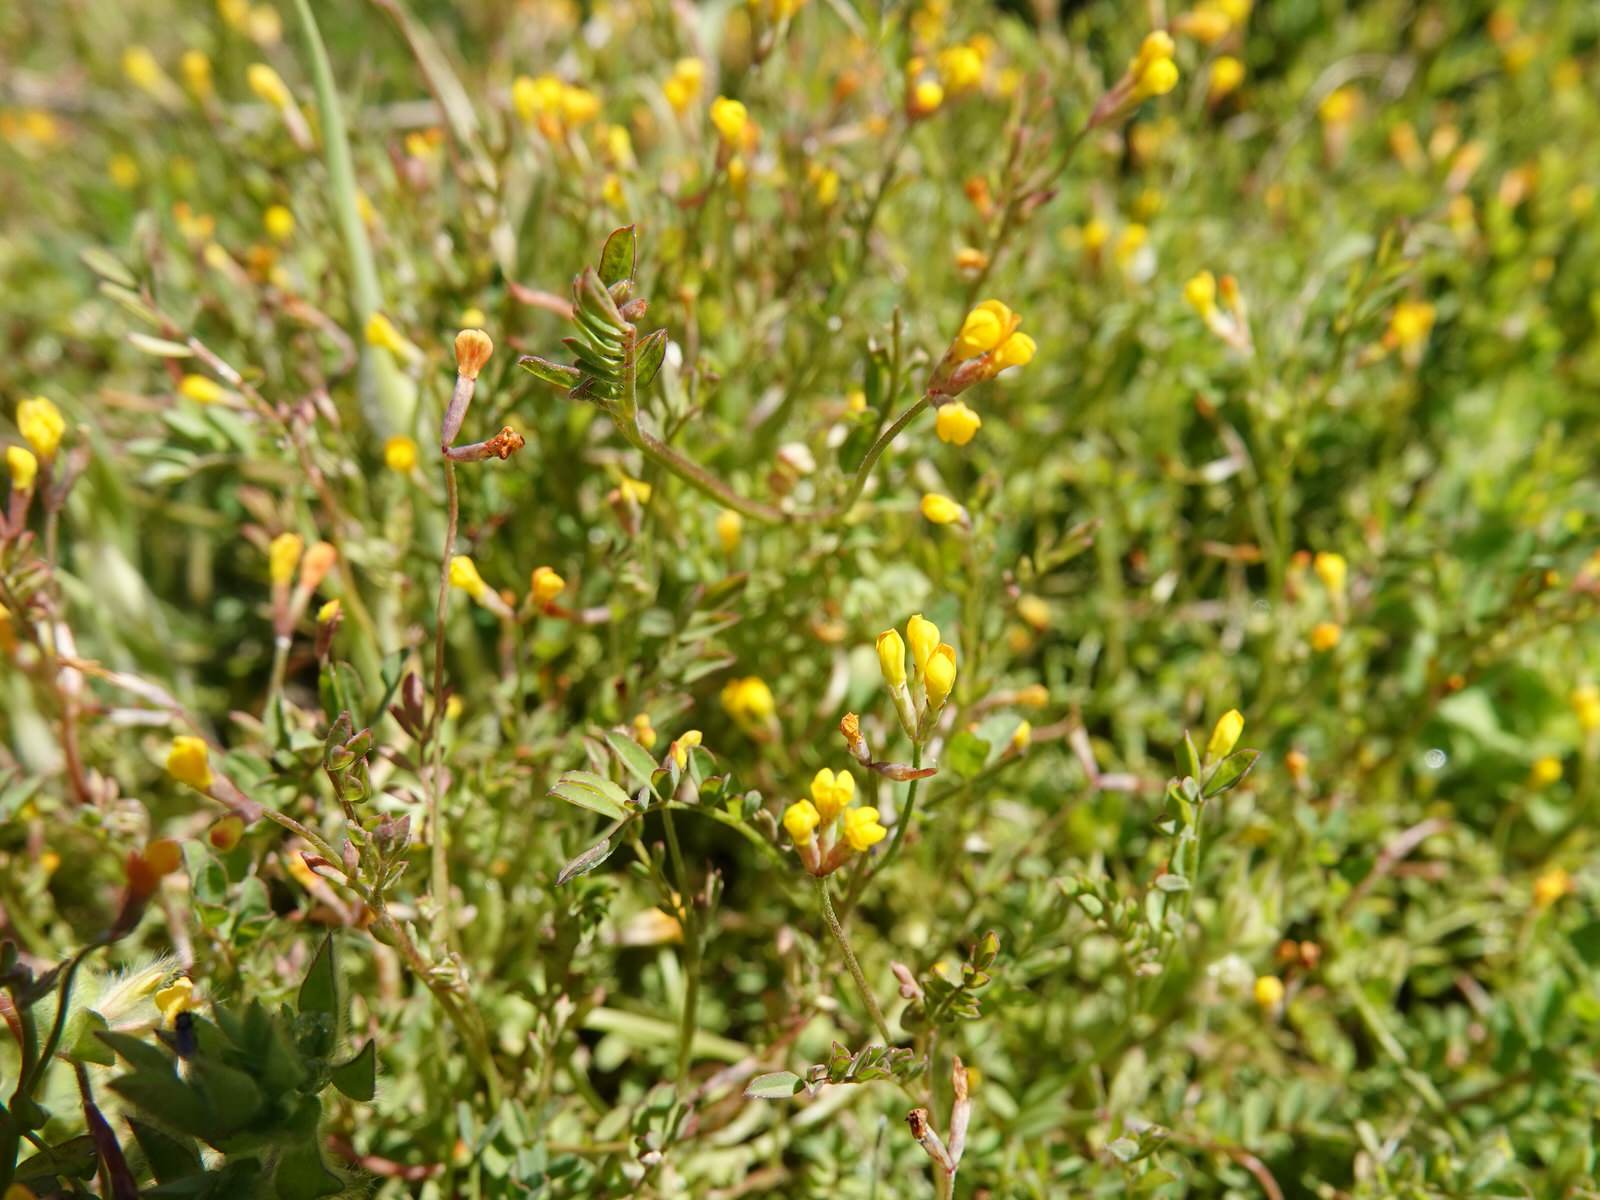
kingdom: Plantae
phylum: Tracheophyta
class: Magnoliopsida
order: Fabales
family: Fabaceae
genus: Ornithopus
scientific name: Ornithopus pinnatus
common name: Orange bird's-foot
